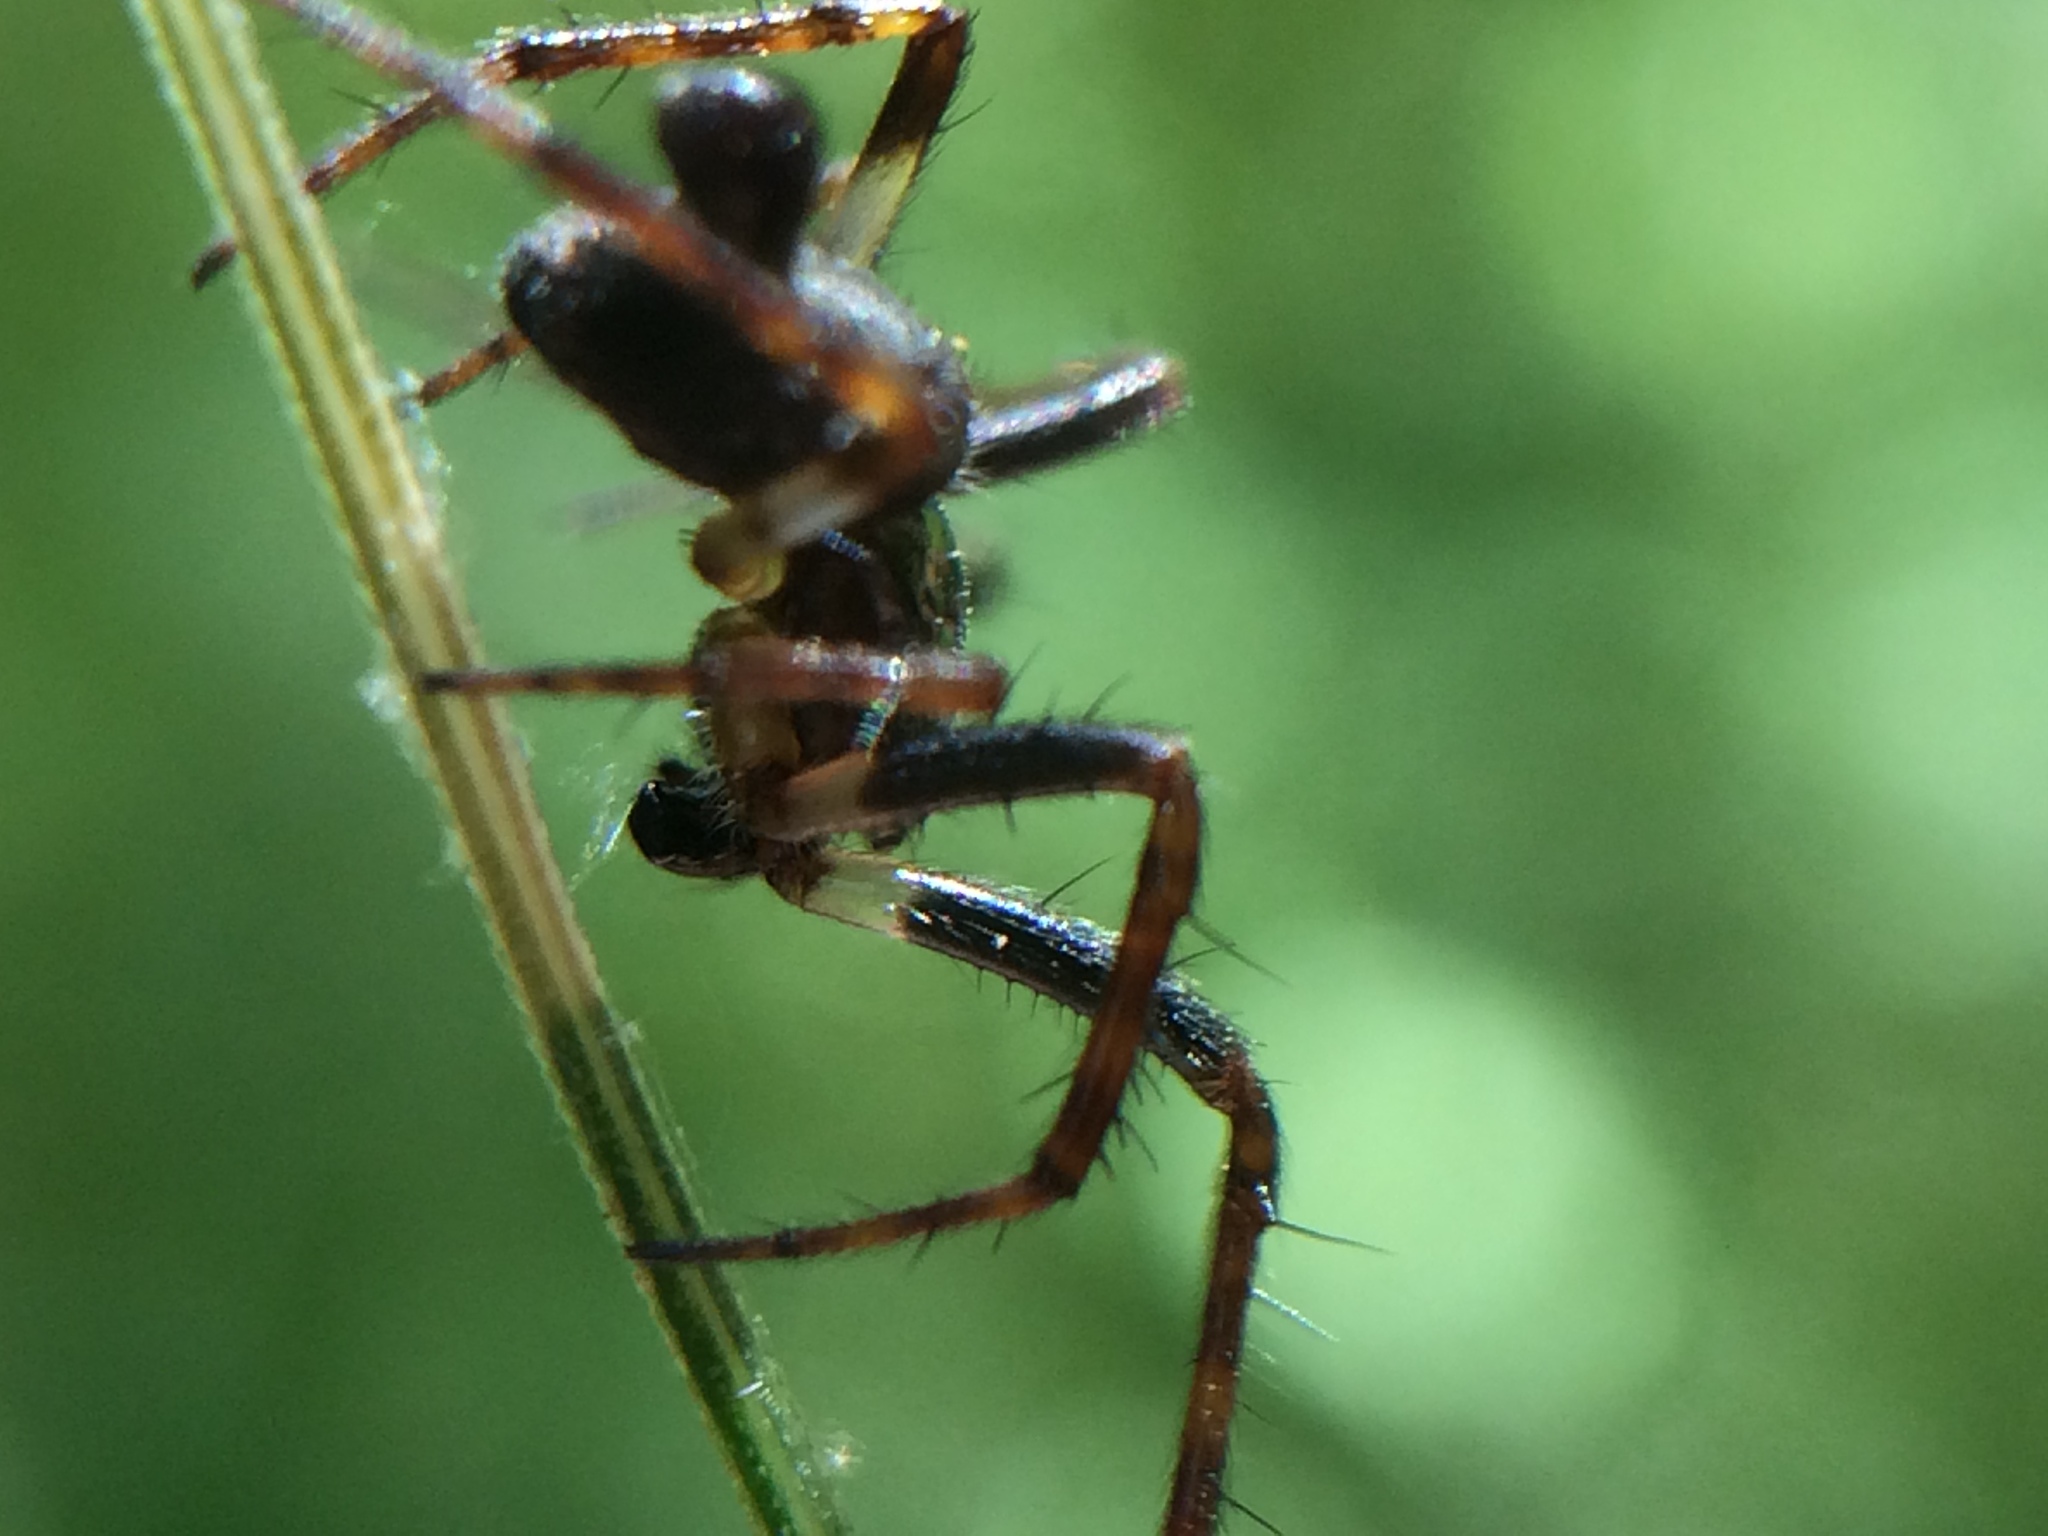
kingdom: Animalia
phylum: Arthropoda
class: Arachnida
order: Araneae
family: Araneidae
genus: Cyclosa
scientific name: Cyclosa conica
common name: Conical trashline orbweaver
